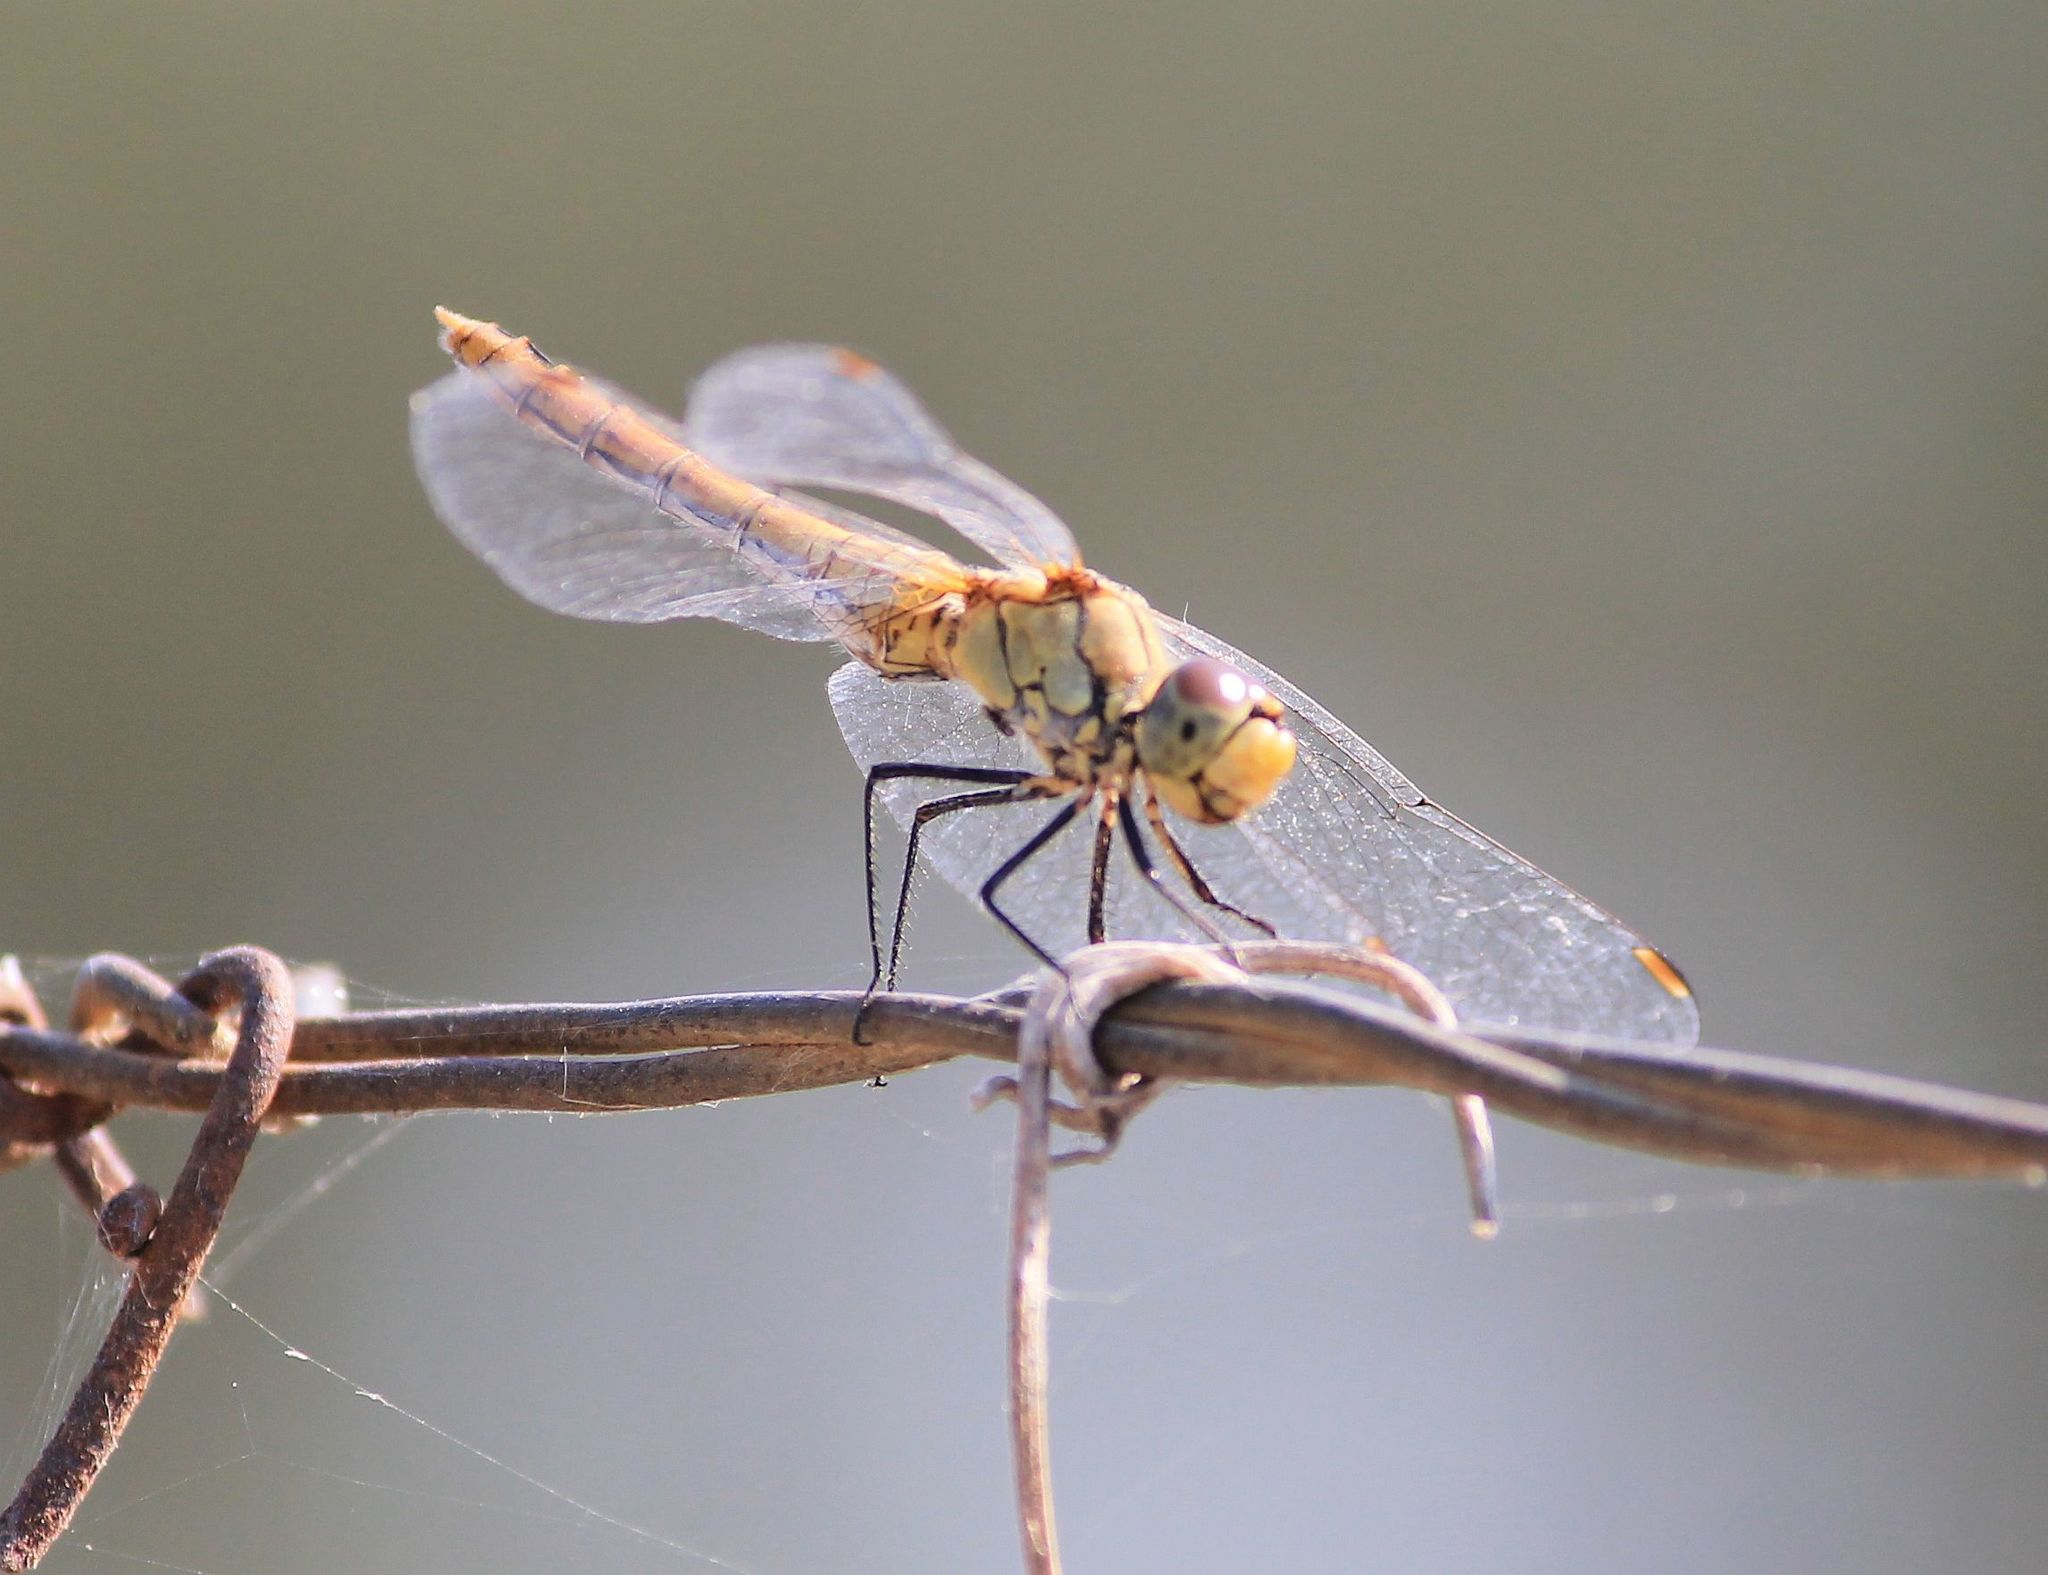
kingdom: Animalia
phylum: Arthropoda
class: Insecta
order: Odonata
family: Libellulidae
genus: Sympetrum
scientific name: Sympetrum fonscolombii
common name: Red-veined darter
